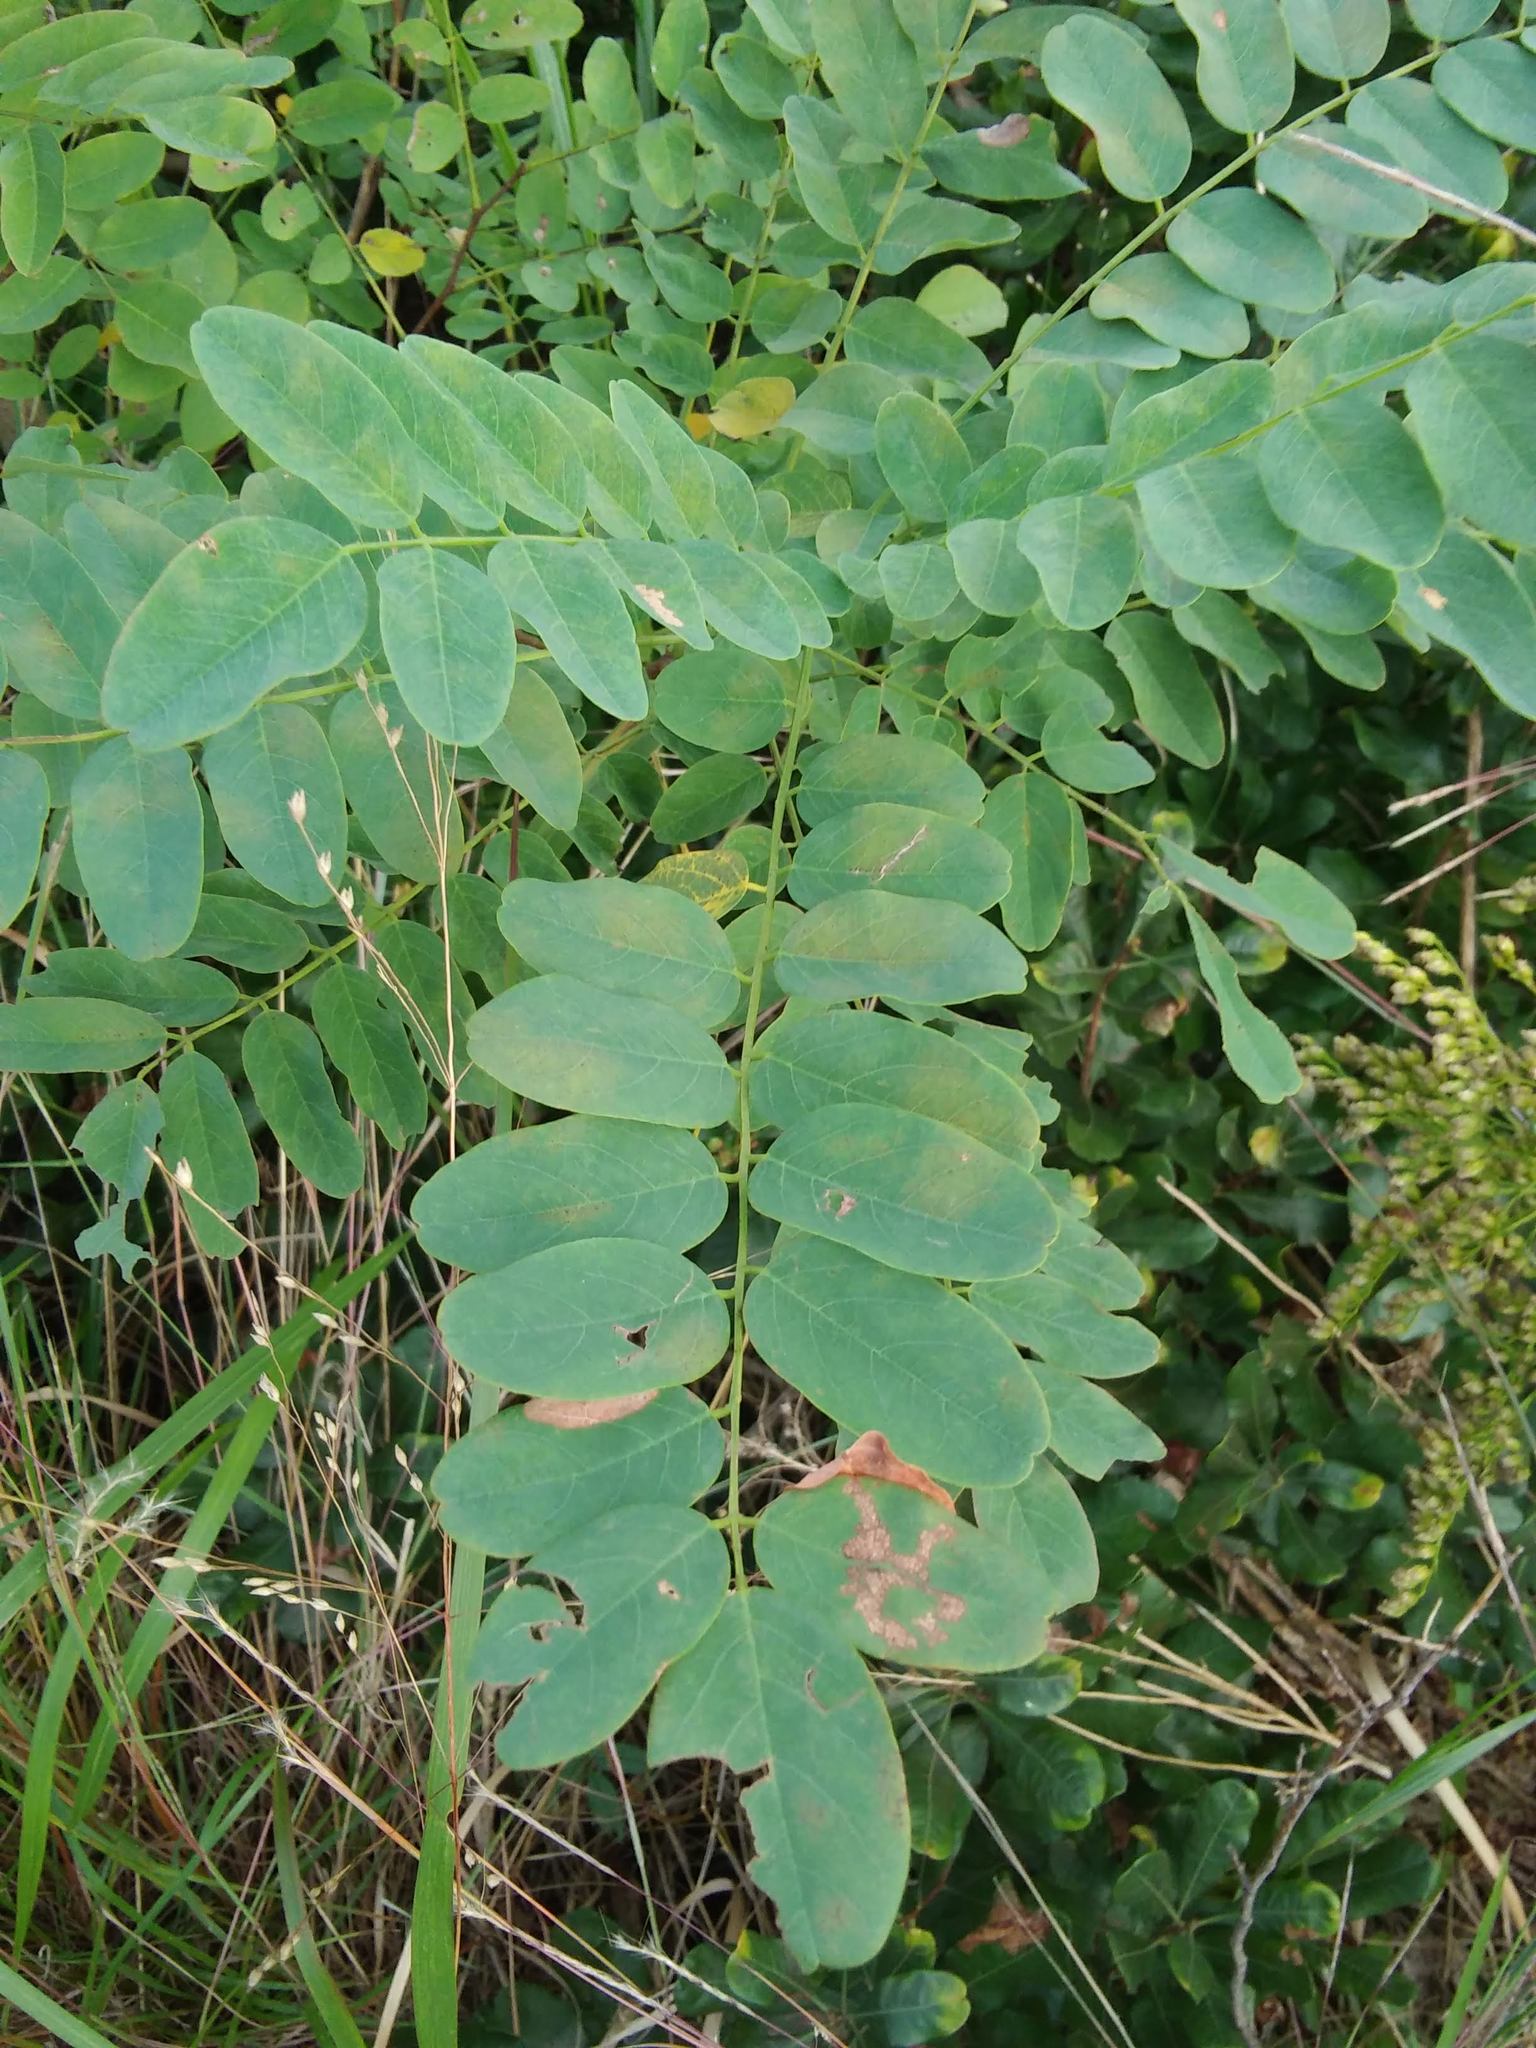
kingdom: Plantae
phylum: Tracheophyta
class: Magnoliopsida
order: Fabales
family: Fabaceae
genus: Robinia
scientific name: Robinia pseudoacacia
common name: Black locust
